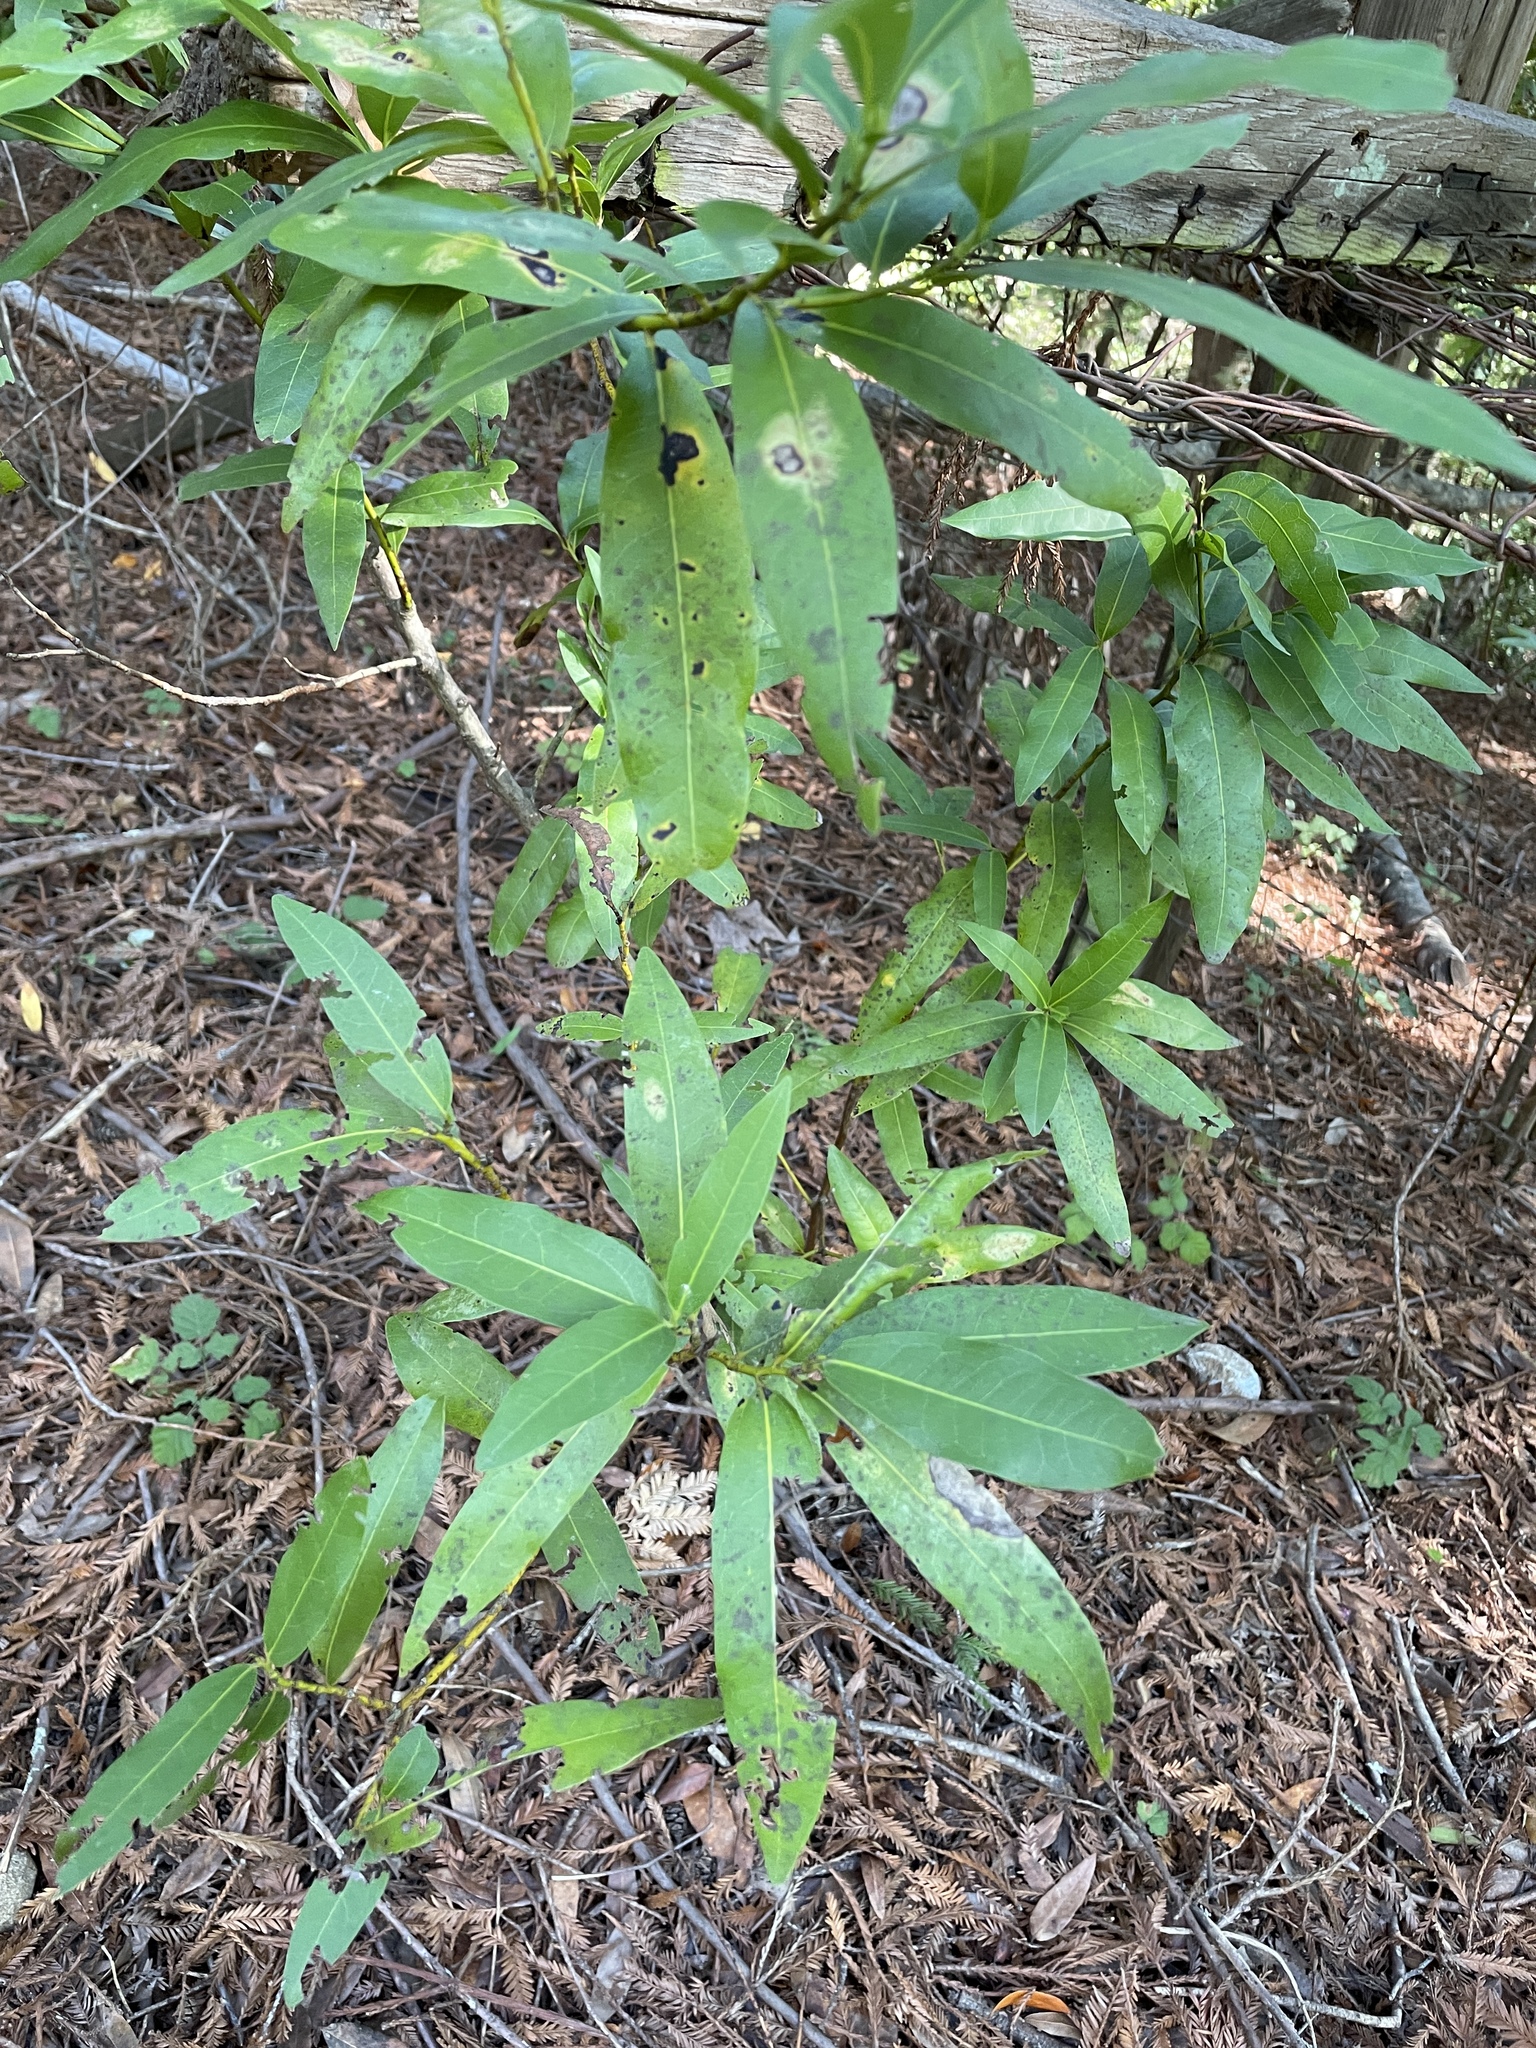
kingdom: Plantae
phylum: Tracheophyta
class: Magnoliopsida
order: Laurales
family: Lauraceae
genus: Umbellularia
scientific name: Umbellularia californica
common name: California bay
